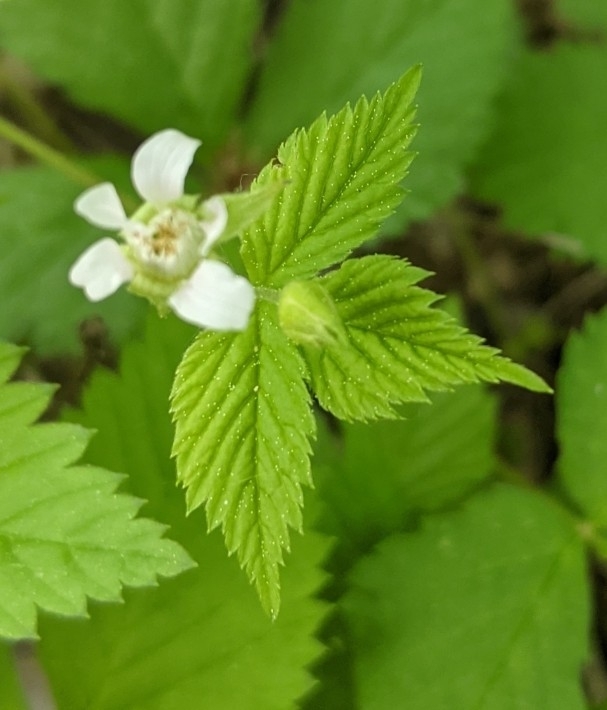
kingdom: Plantae
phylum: Tracheophyta
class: Magnoliopsida
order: Rosales
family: Rosaceae
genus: Rubus
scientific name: Rubus pubescens
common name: Dwarf raspberry
